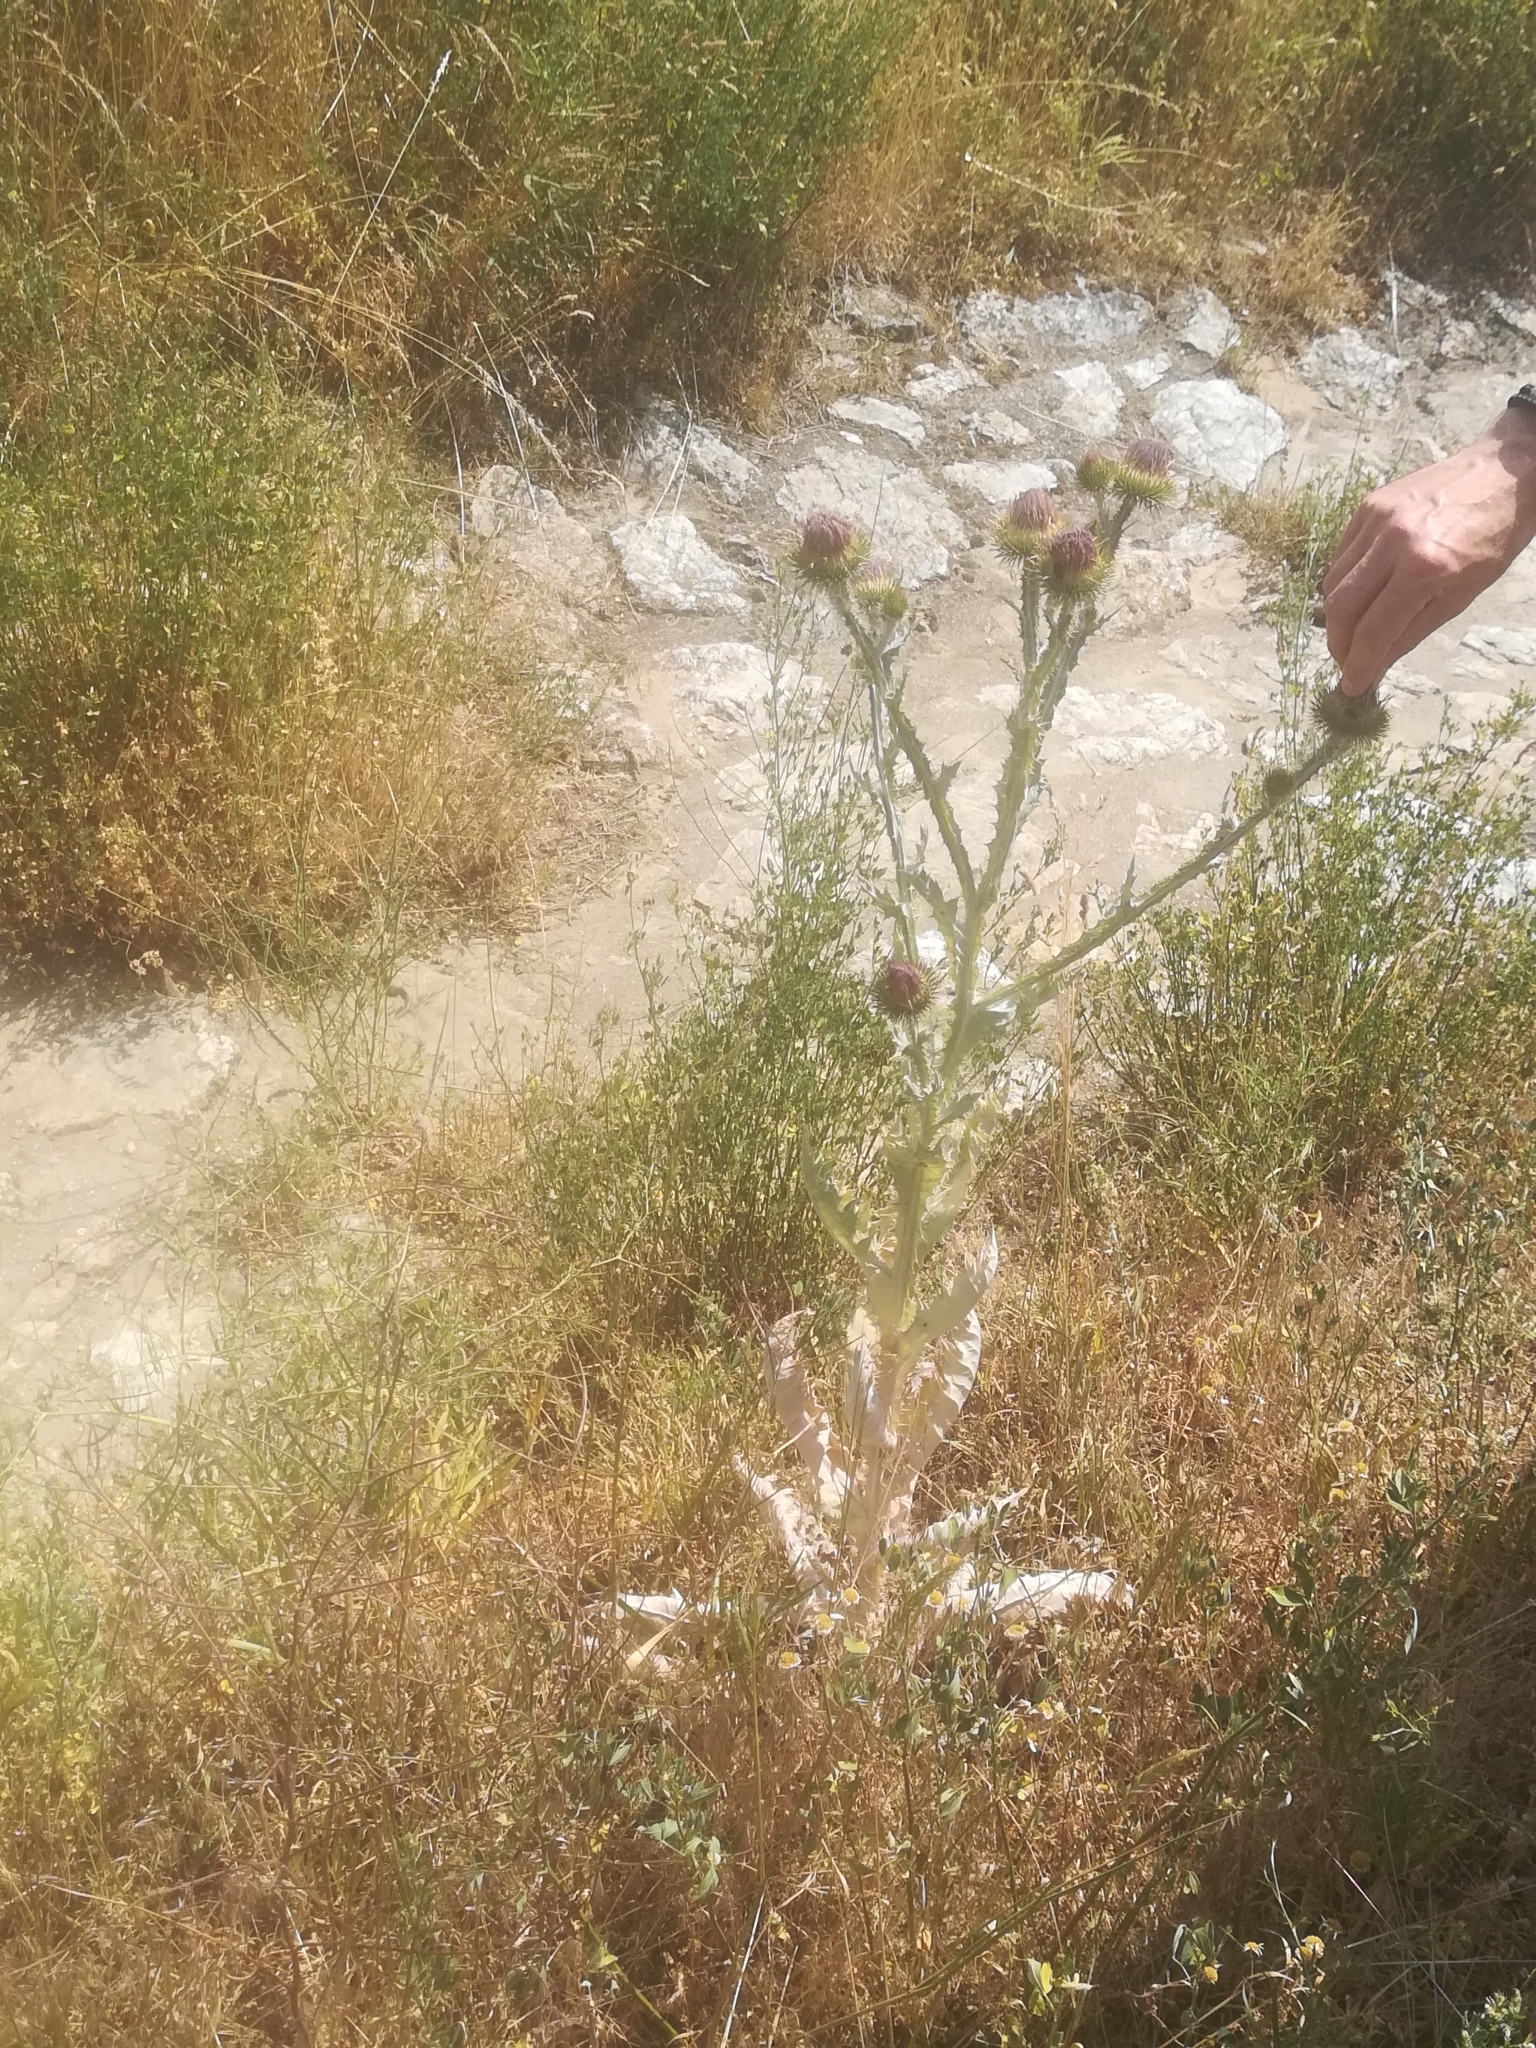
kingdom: Plantae
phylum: Tracheophyta
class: Magnoliopsida
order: Asterales
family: Asteraceae
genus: Onopordum
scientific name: Onopordum acanthium
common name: Scotch thistle
